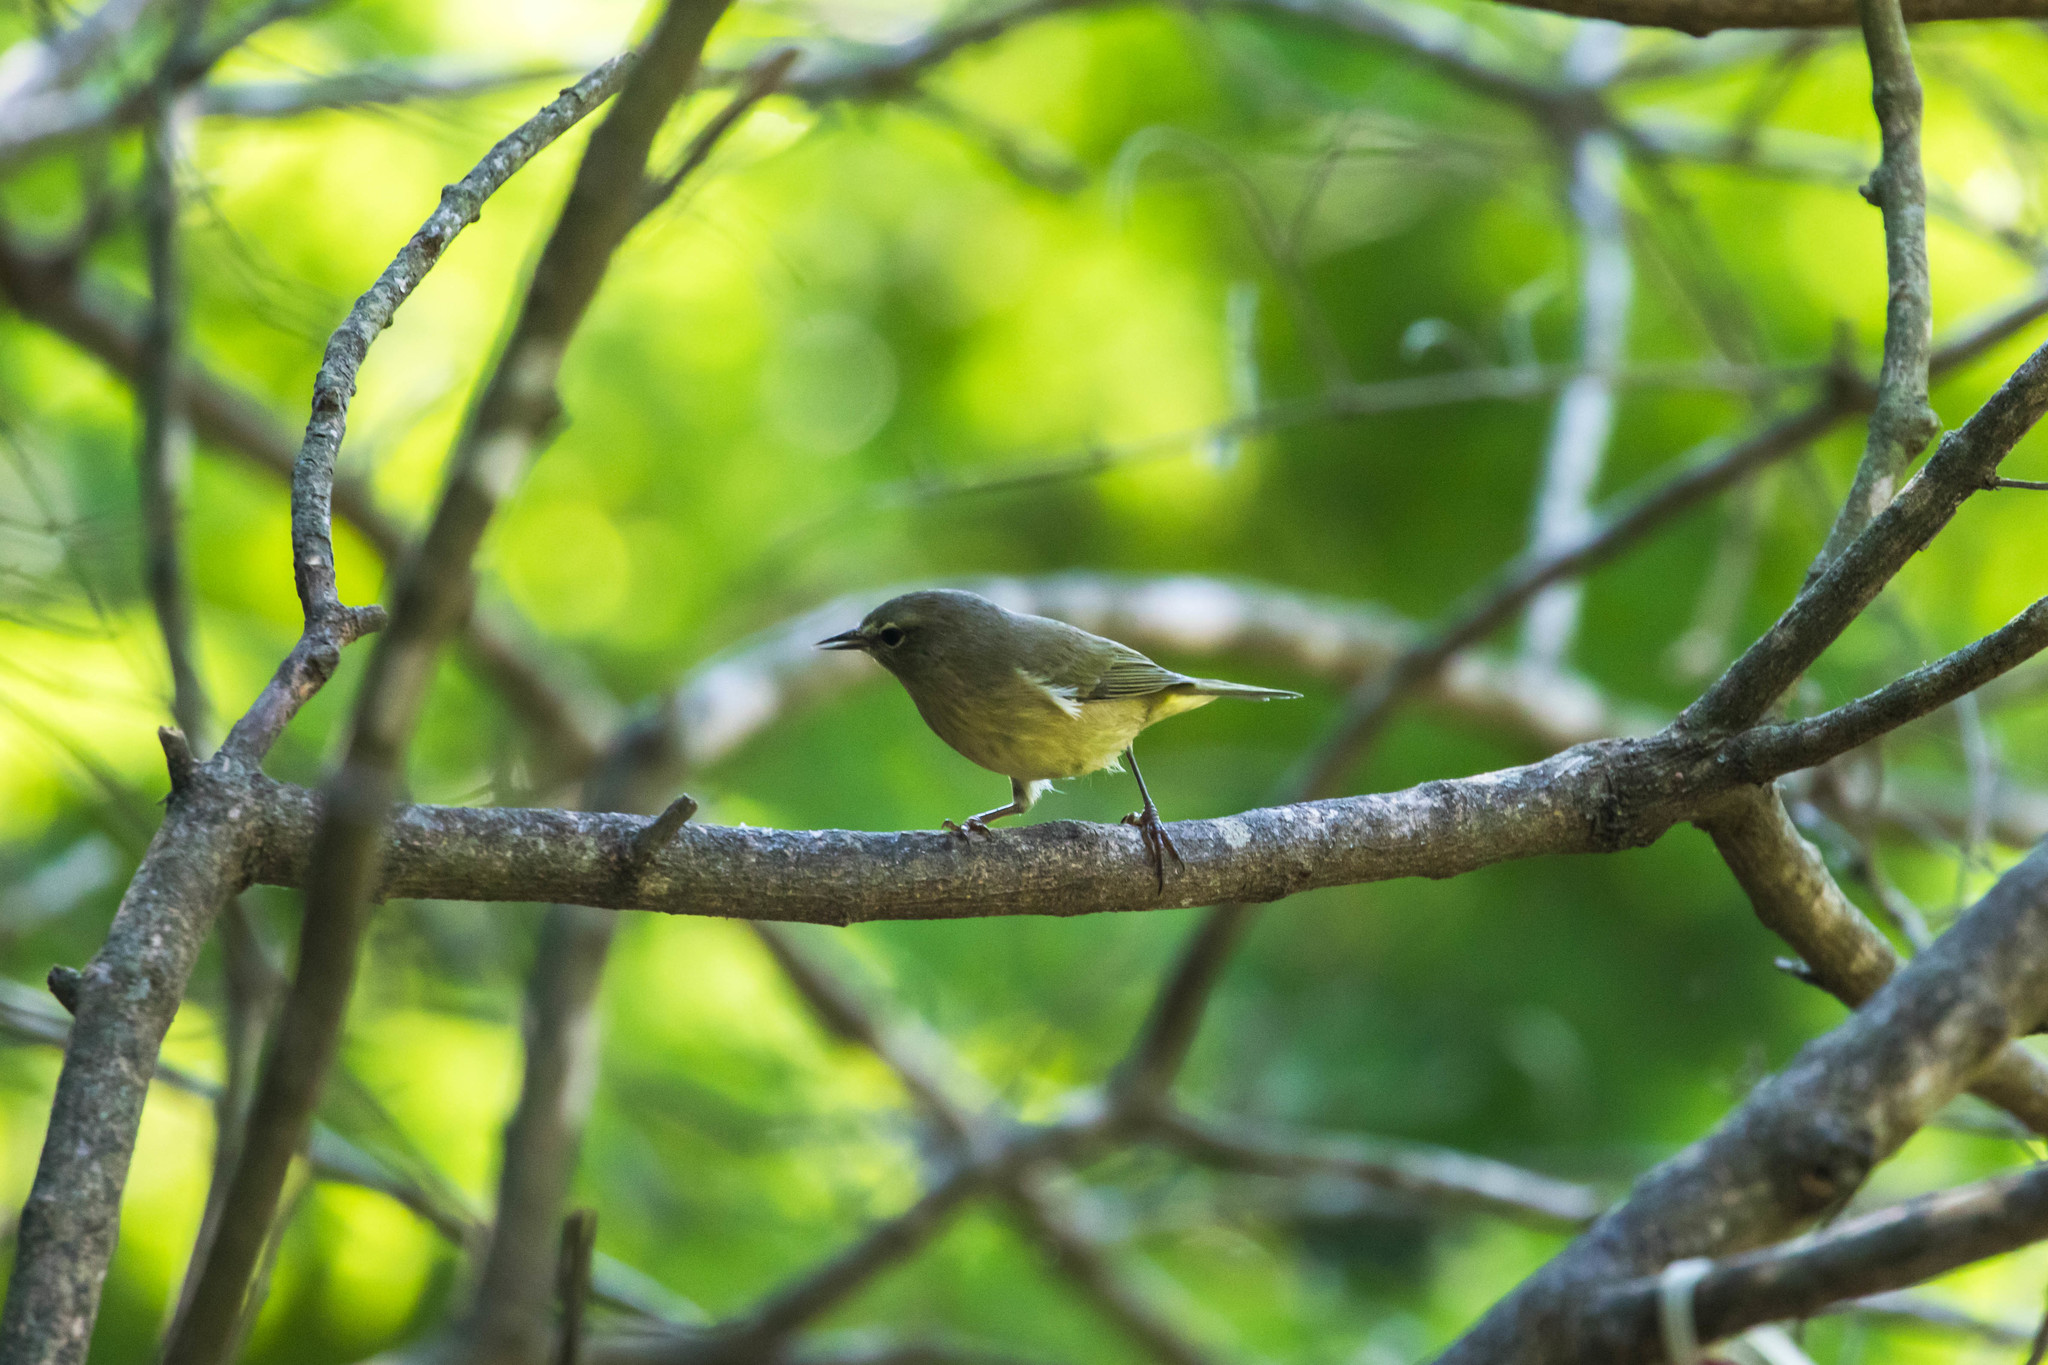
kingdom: Animalia
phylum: Chordata
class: Aves
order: Passeriformes
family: Parulidae
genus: Leiothlypis
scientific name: Leiothlypis celata
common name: Orange-crowned warbler
